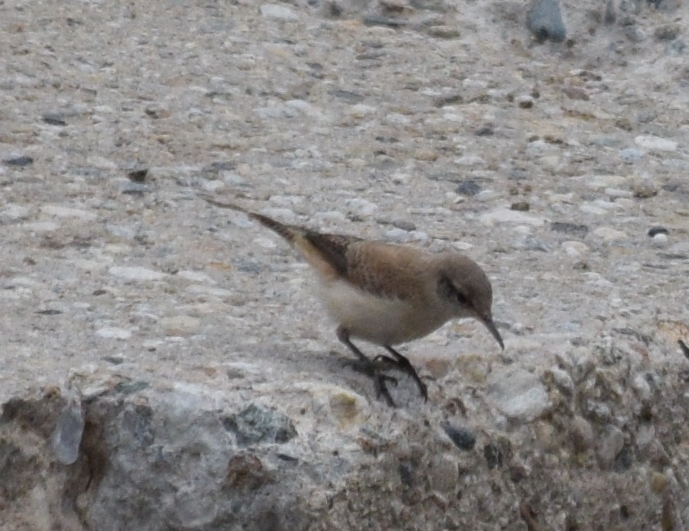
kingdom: Animalia
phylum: Chordata
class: Aves
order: Passeriformes
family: Troglodytidae
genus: Salpinctes
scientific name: Salpinctes obsoletus
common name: Rock wren
